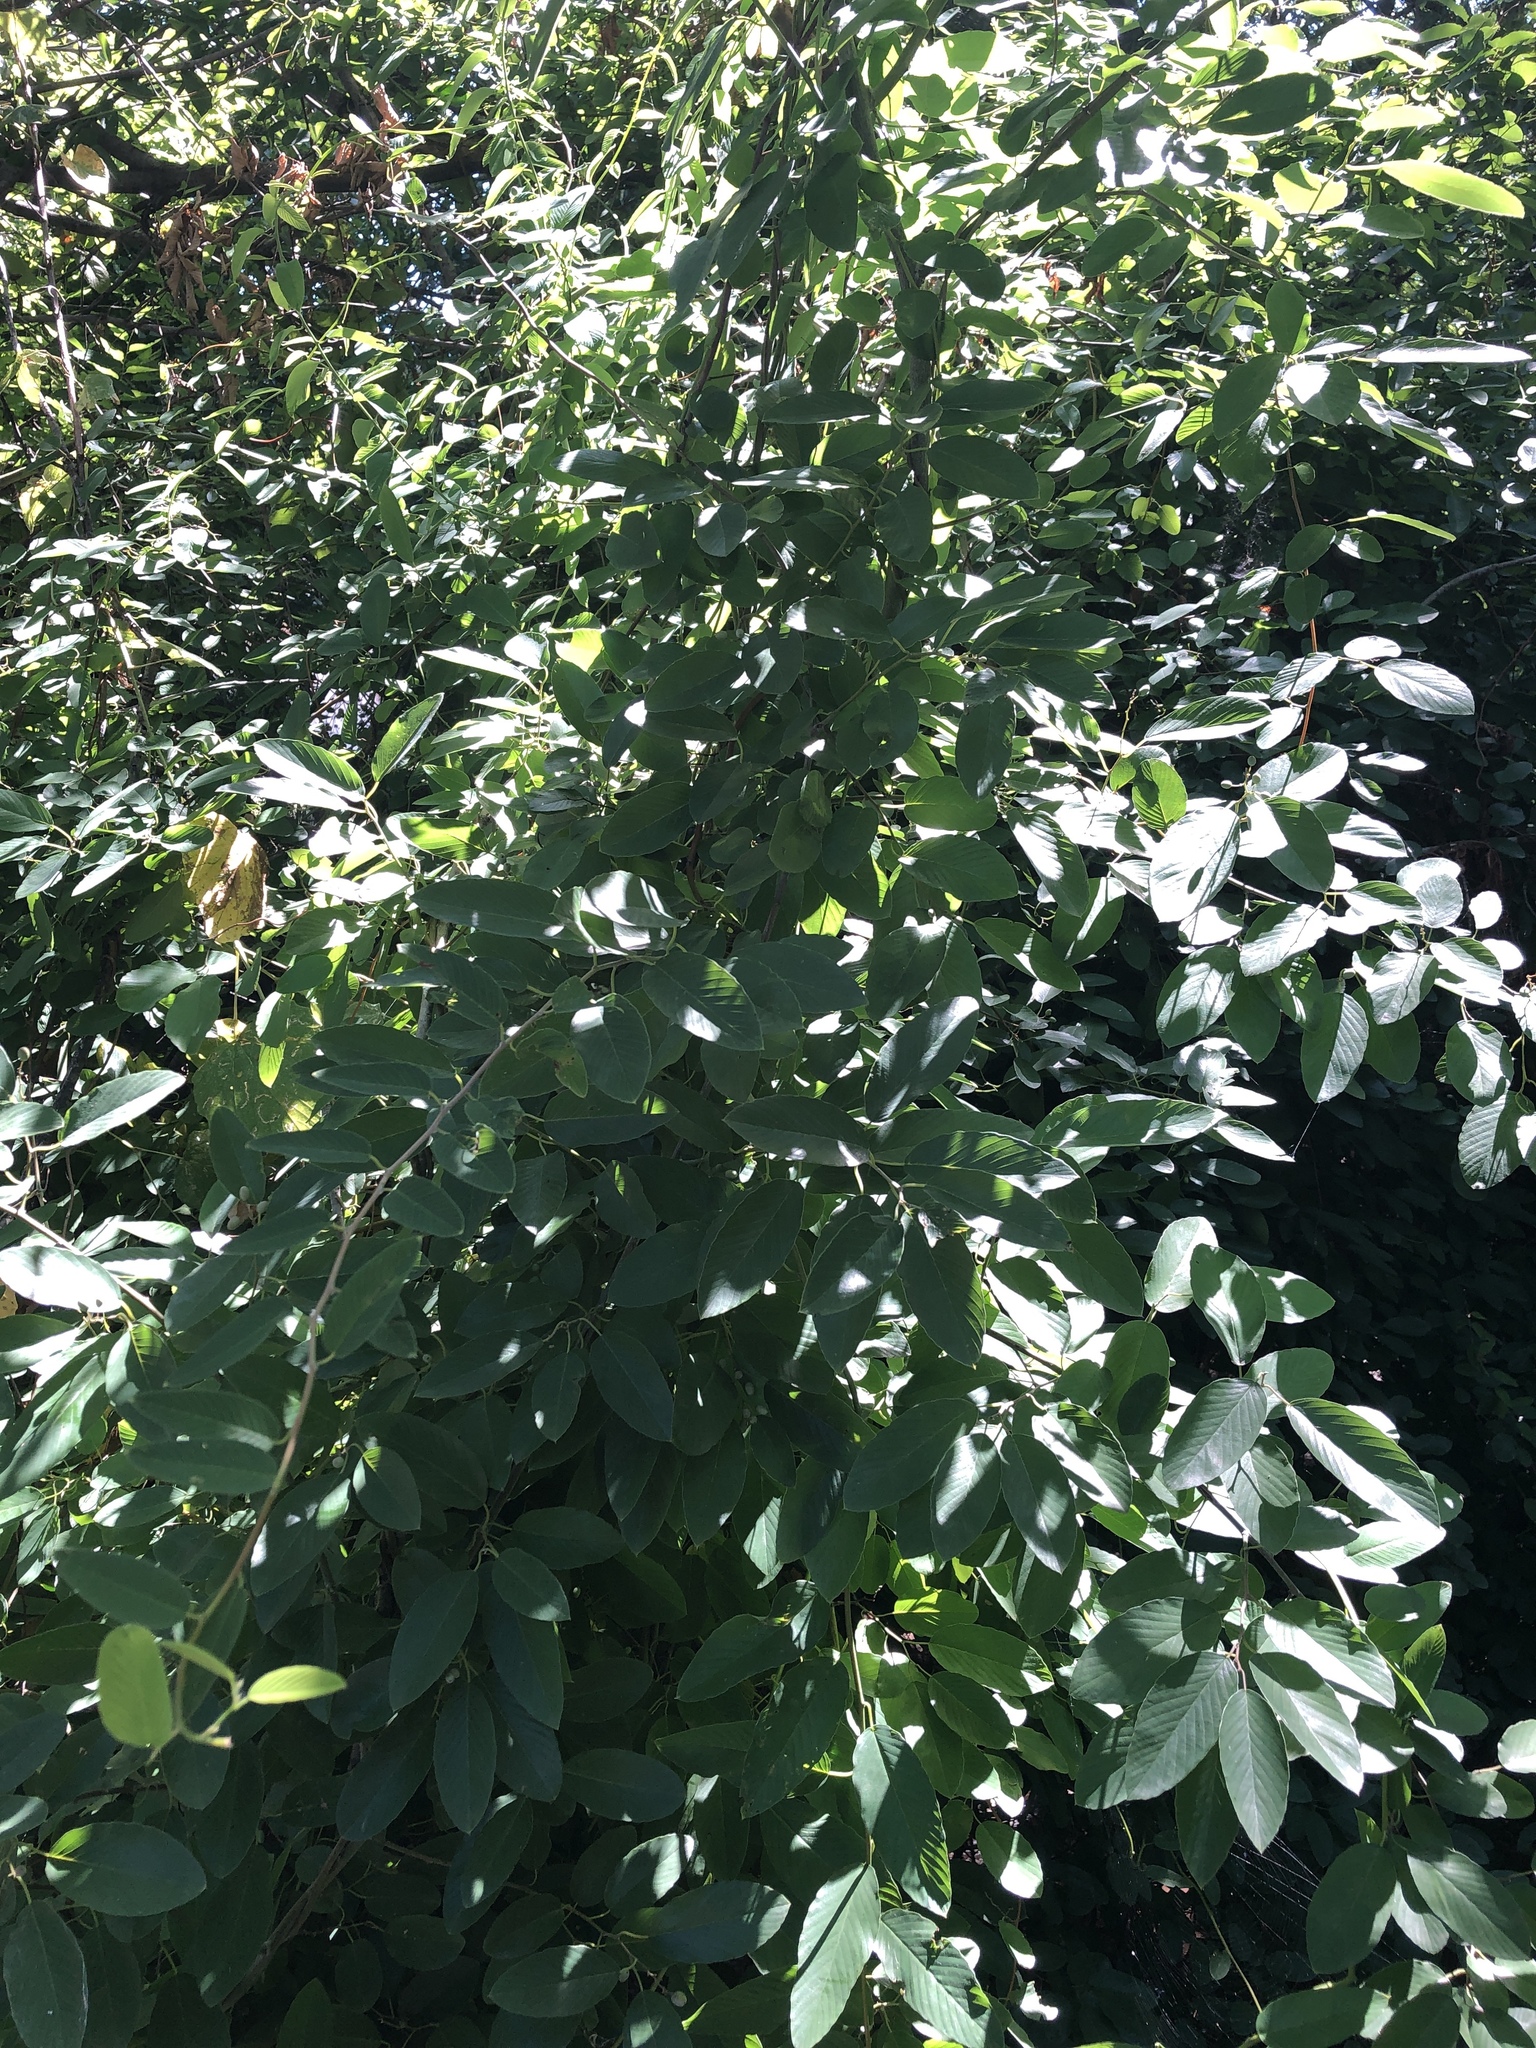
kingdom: Plantae
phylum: Tracheophyta
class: Magnoliopsida
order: Rosales
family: Rhamnaceae
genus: Berchemia
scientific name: Berchemia scandens
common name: Supplejack
